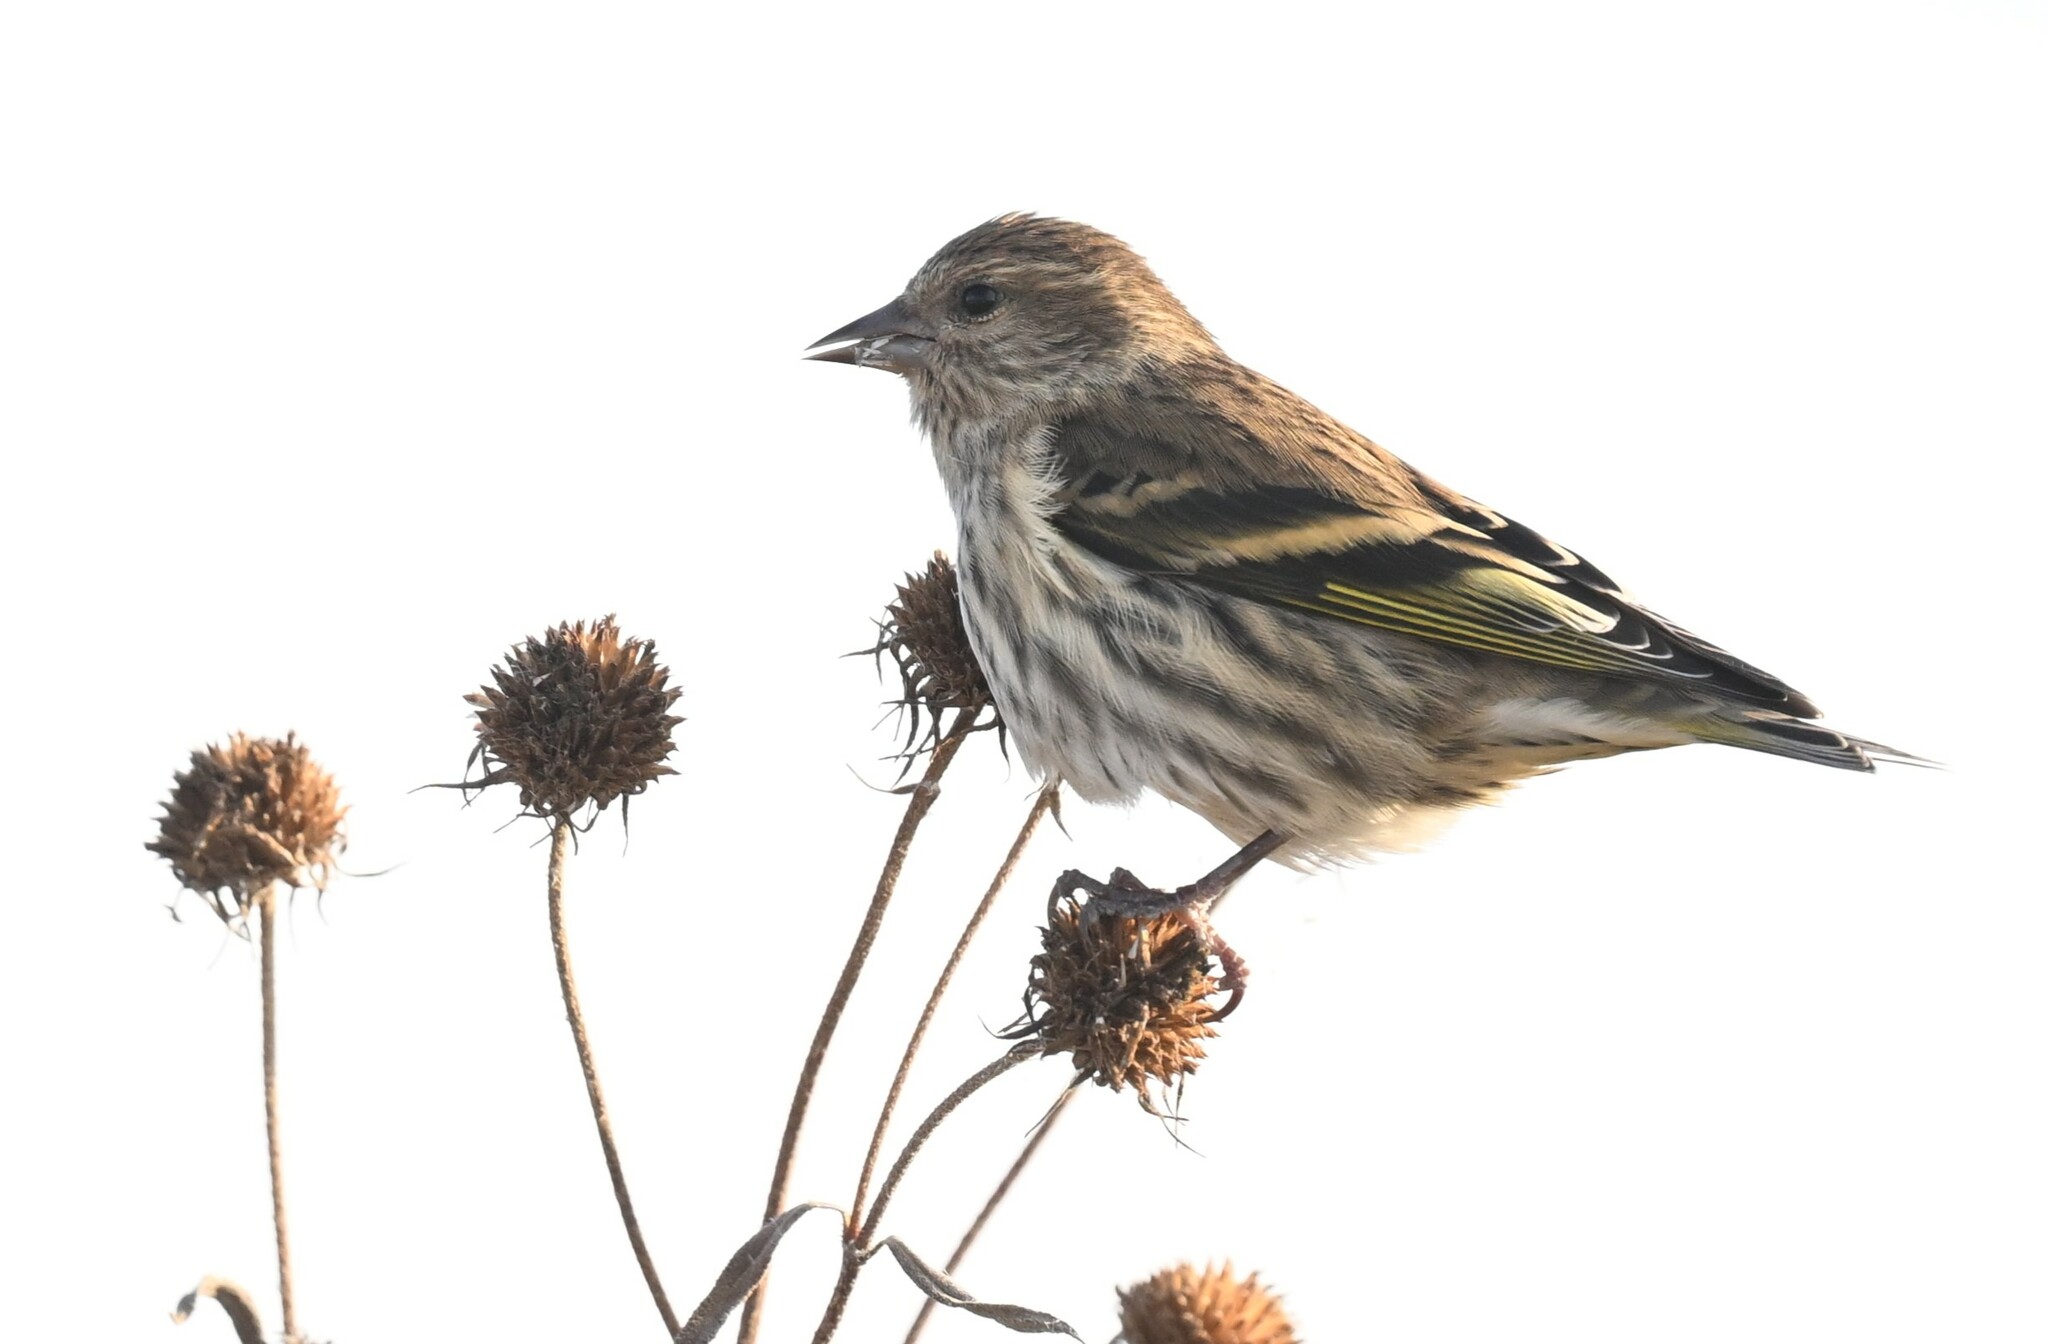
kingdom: Animalia
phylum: Chordata
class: Aves
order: Passeriformes
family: Fringillidae
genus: Spinus
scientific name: Spinus pinus
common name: Pine siskin
